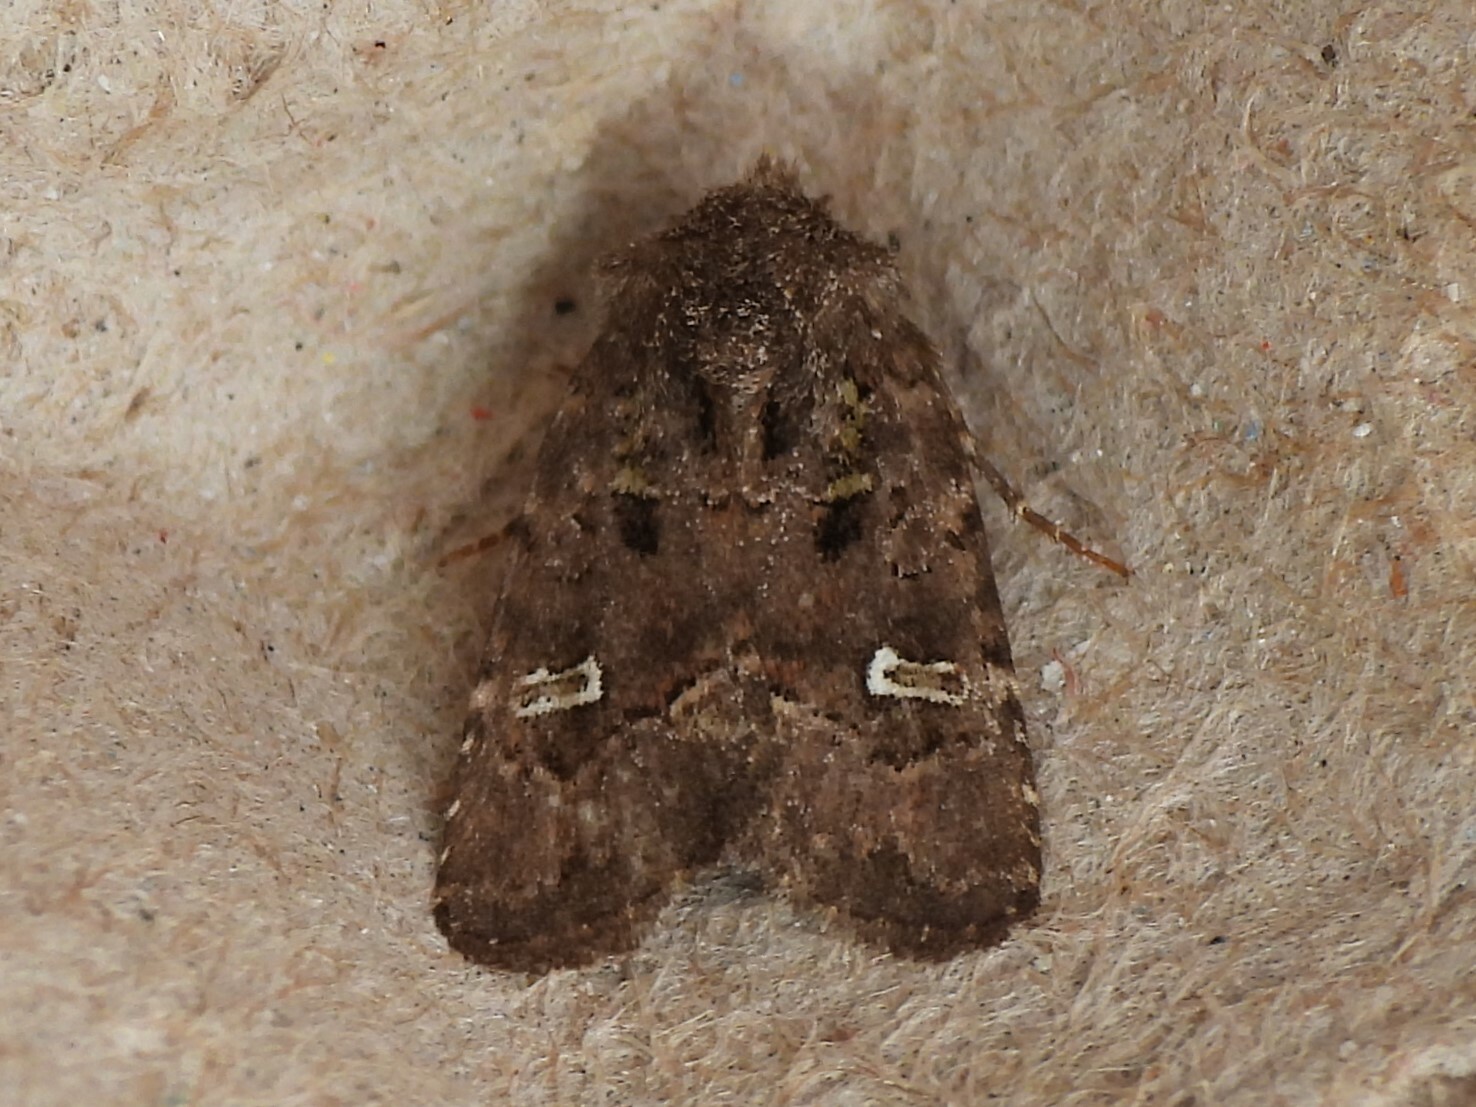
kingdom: Animalia
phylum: Arthropoda
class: Insecta
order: Lepidoptera
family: Noctuidae
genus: Lacinipolia
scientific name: Lacinipolia renigera
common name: Kidney-spotted minor
